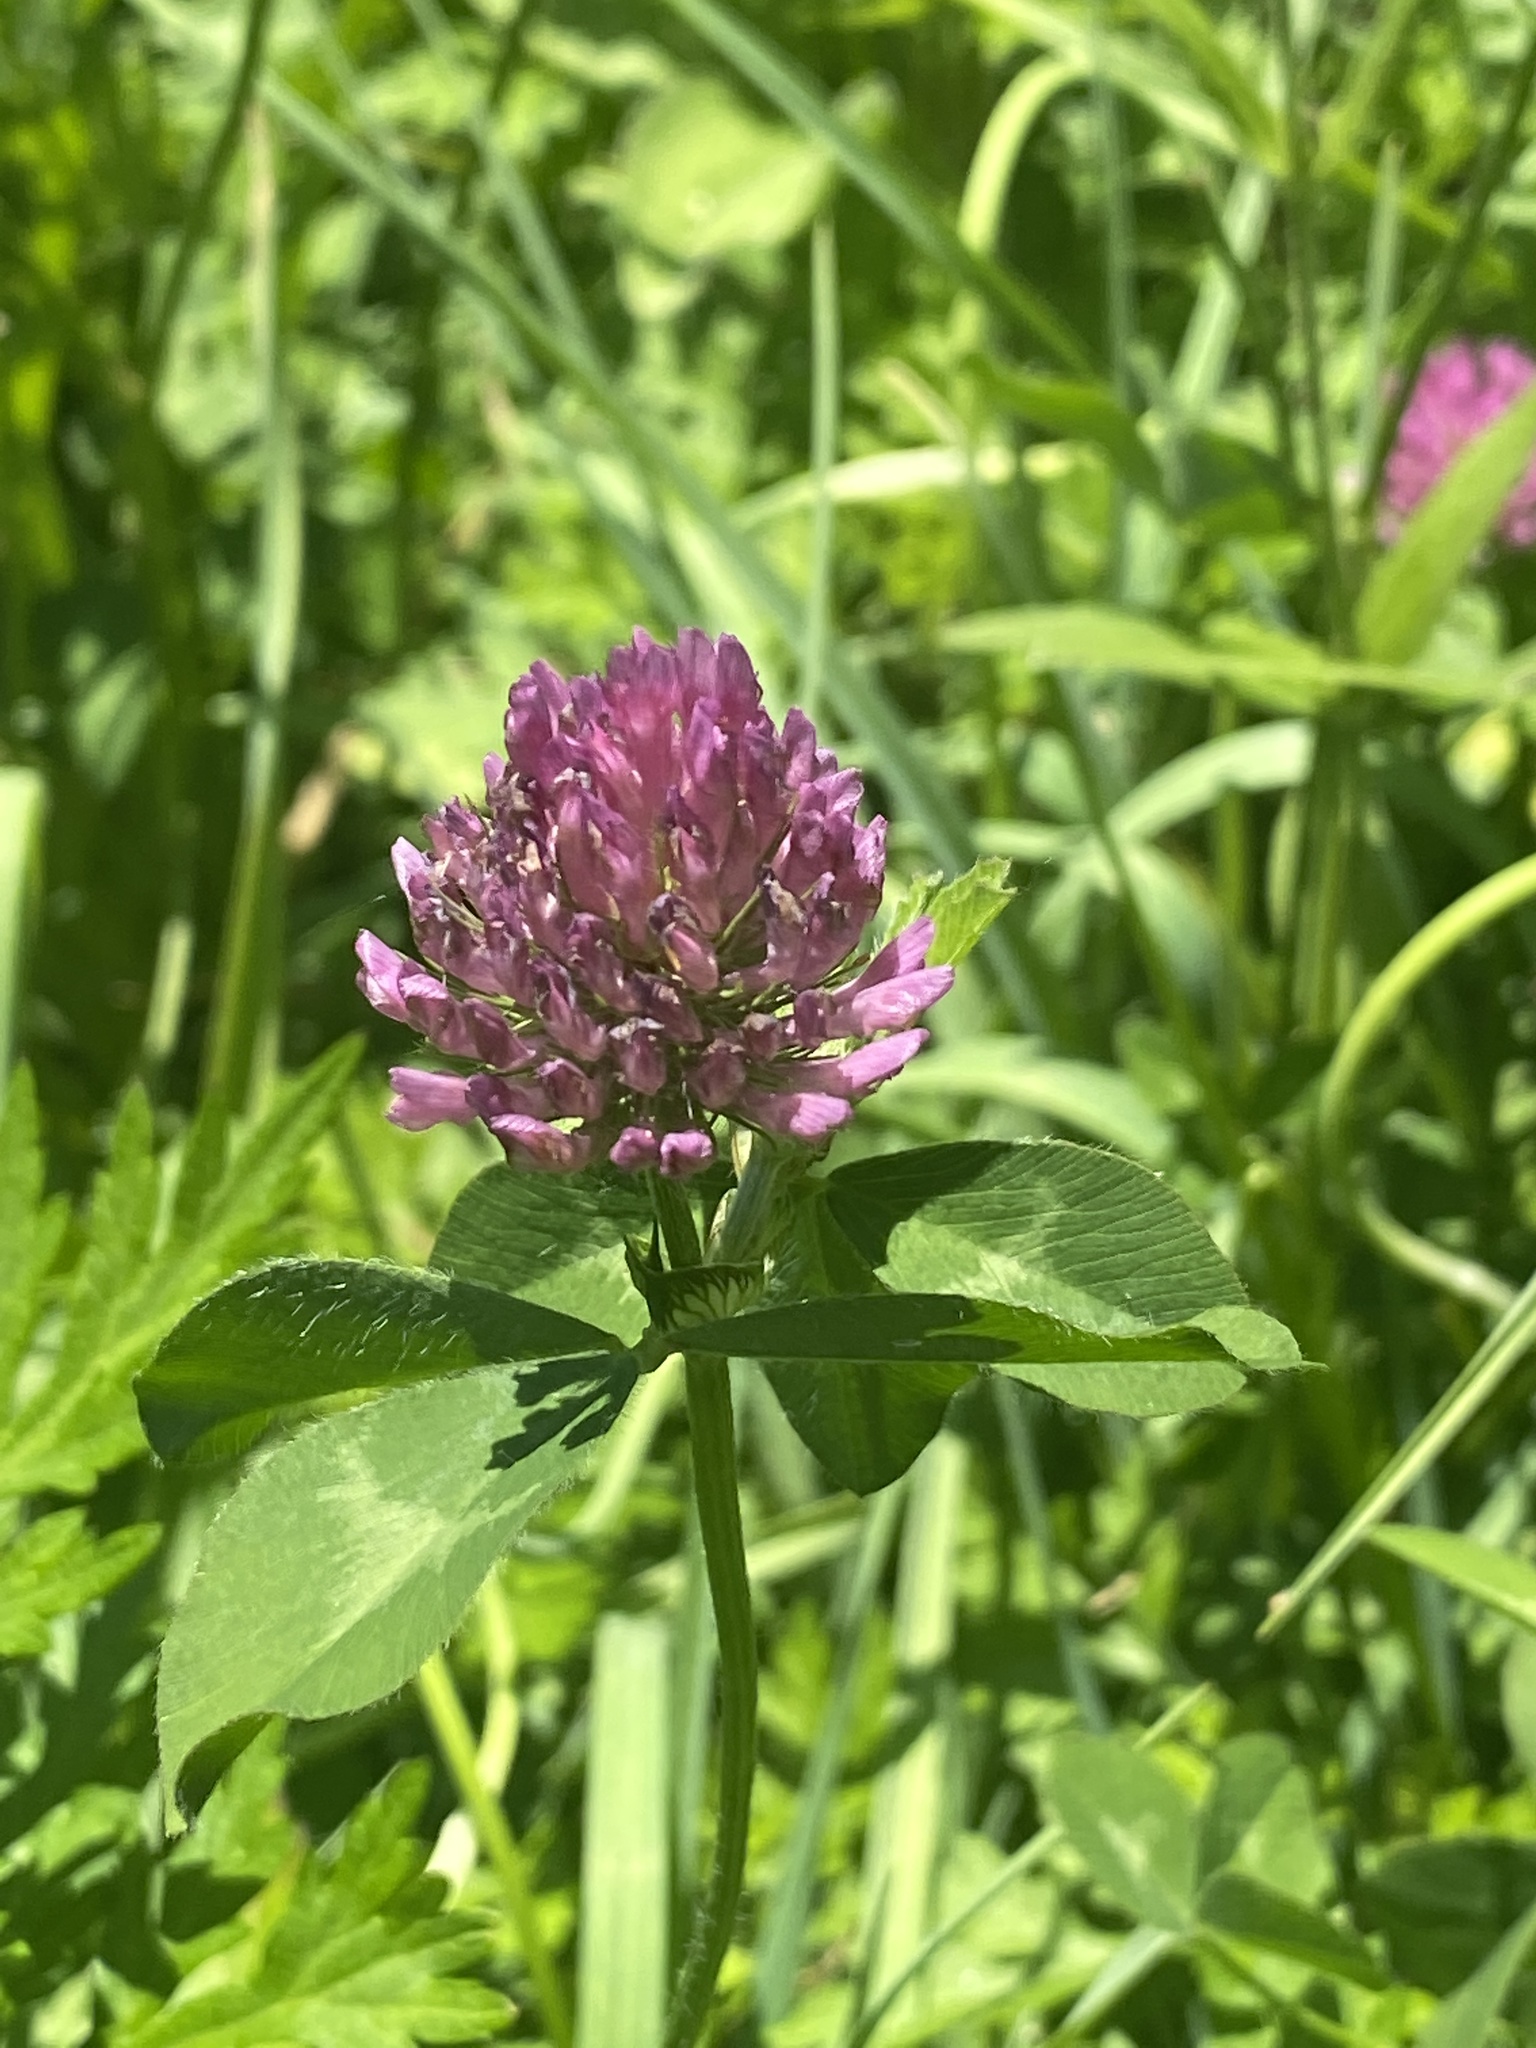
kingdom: Plantae
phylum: Tracheophyta
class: Magnoliopsida
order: Fabales
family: Fabaceae
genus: Trifolium
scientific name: Trifolium pratense
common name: Red clover
